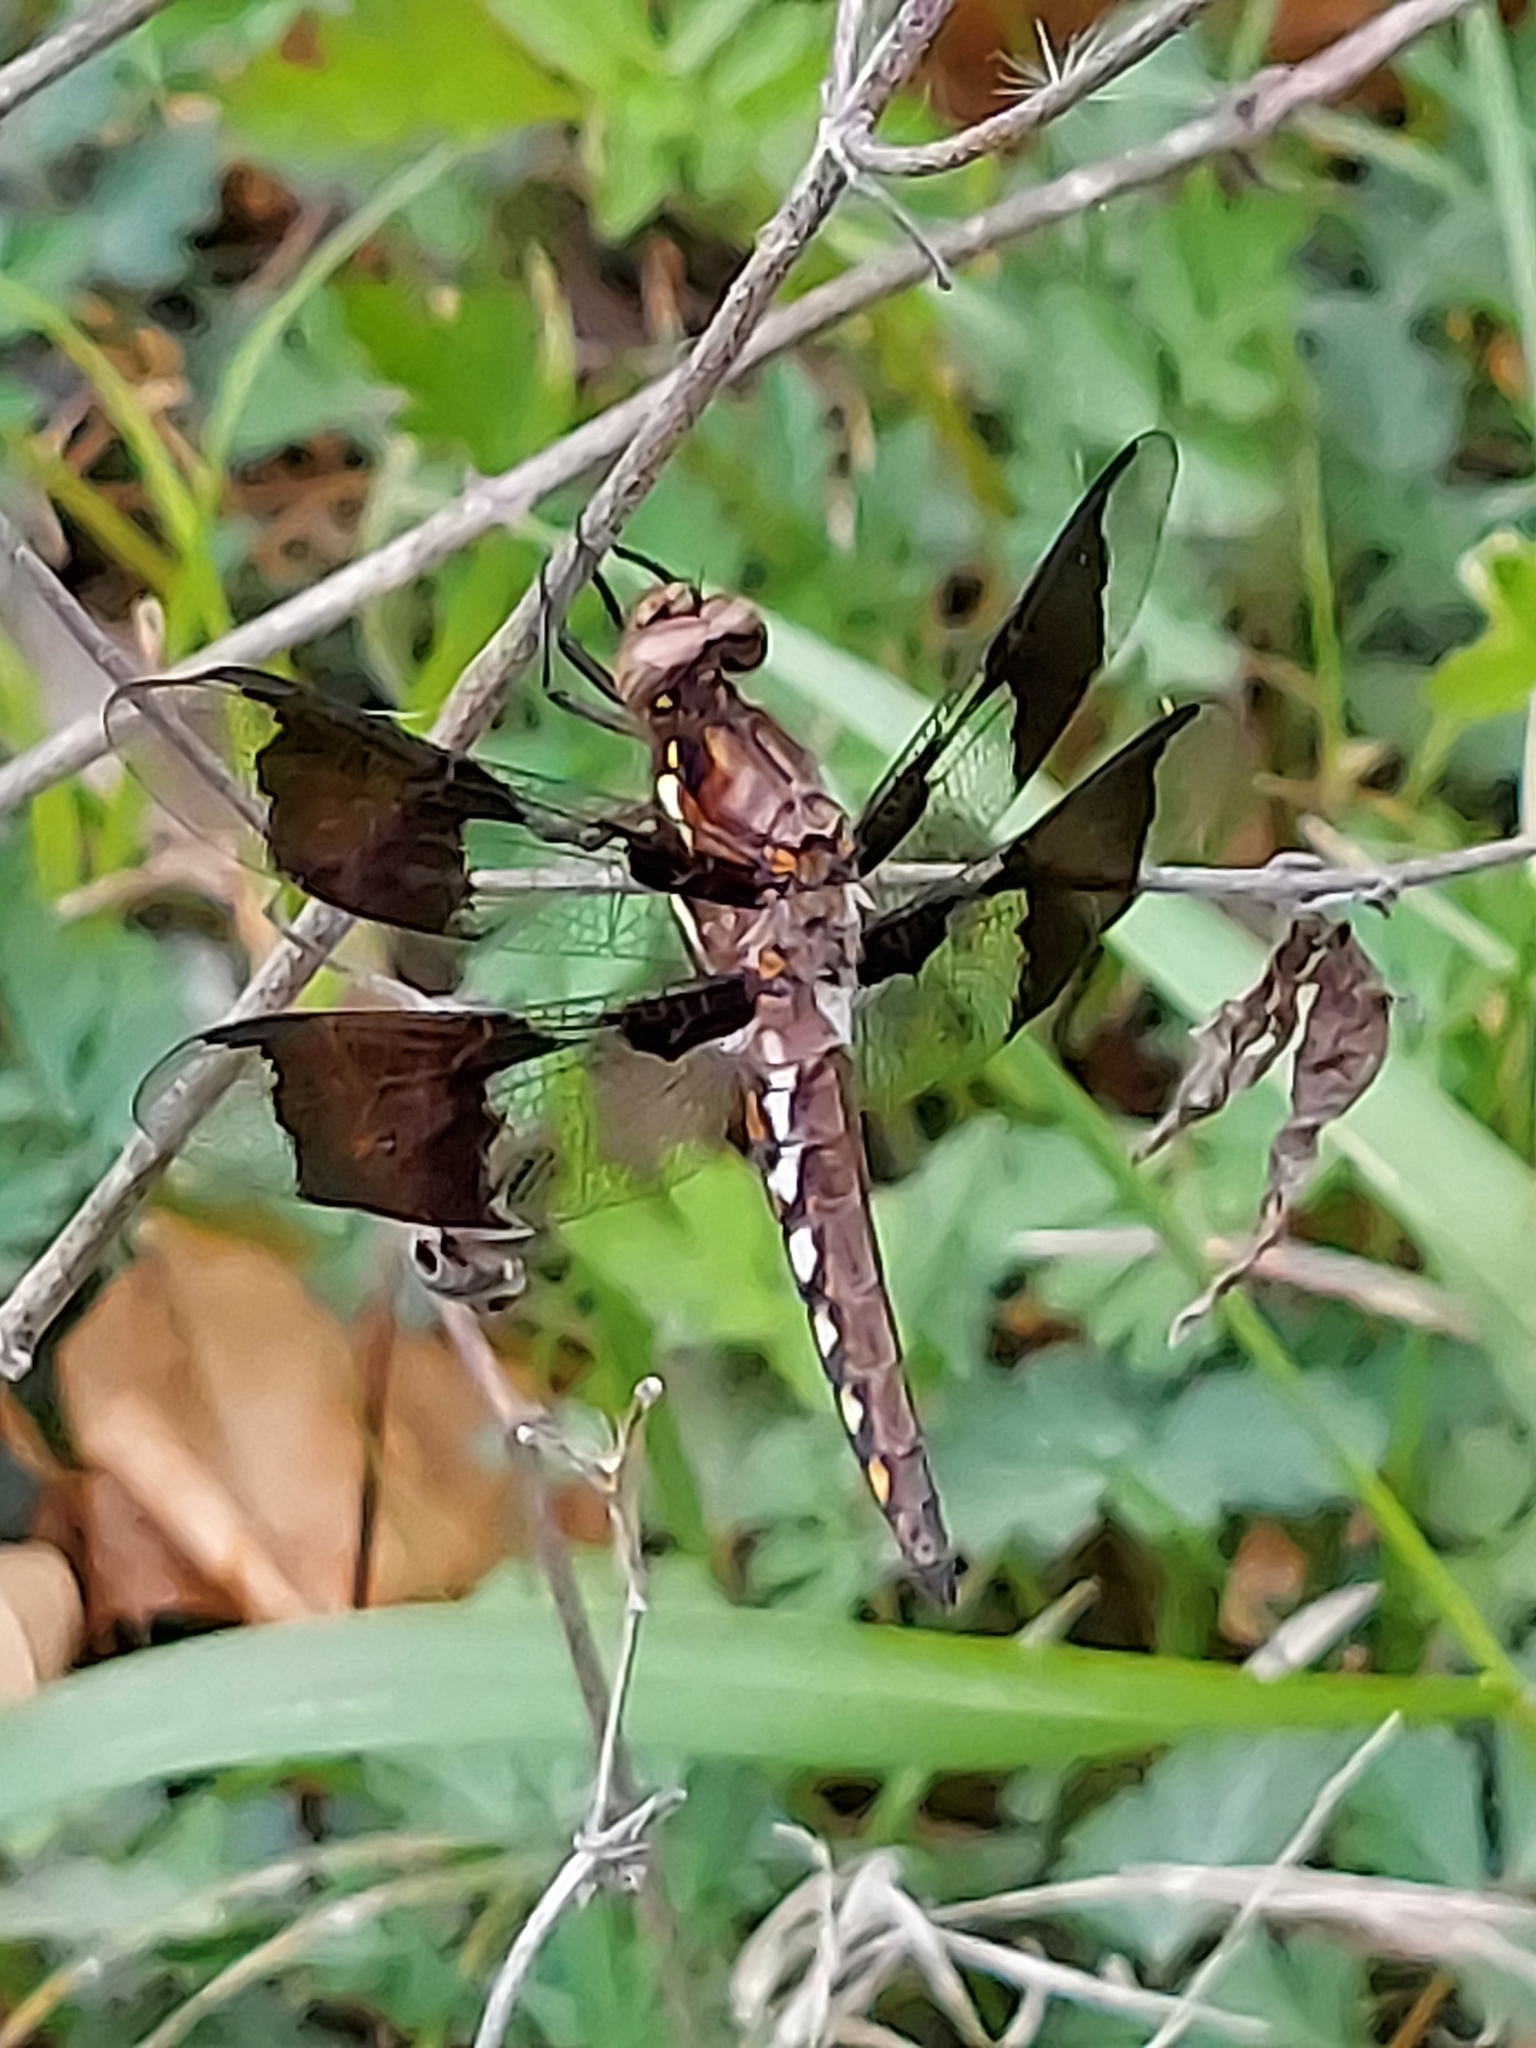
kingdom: Animalia
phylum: Arthropoda
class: Insecta
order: Odonata
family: Libellulidae
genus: Plathemis
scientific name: Plathemis lydia
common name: Common whitetail
